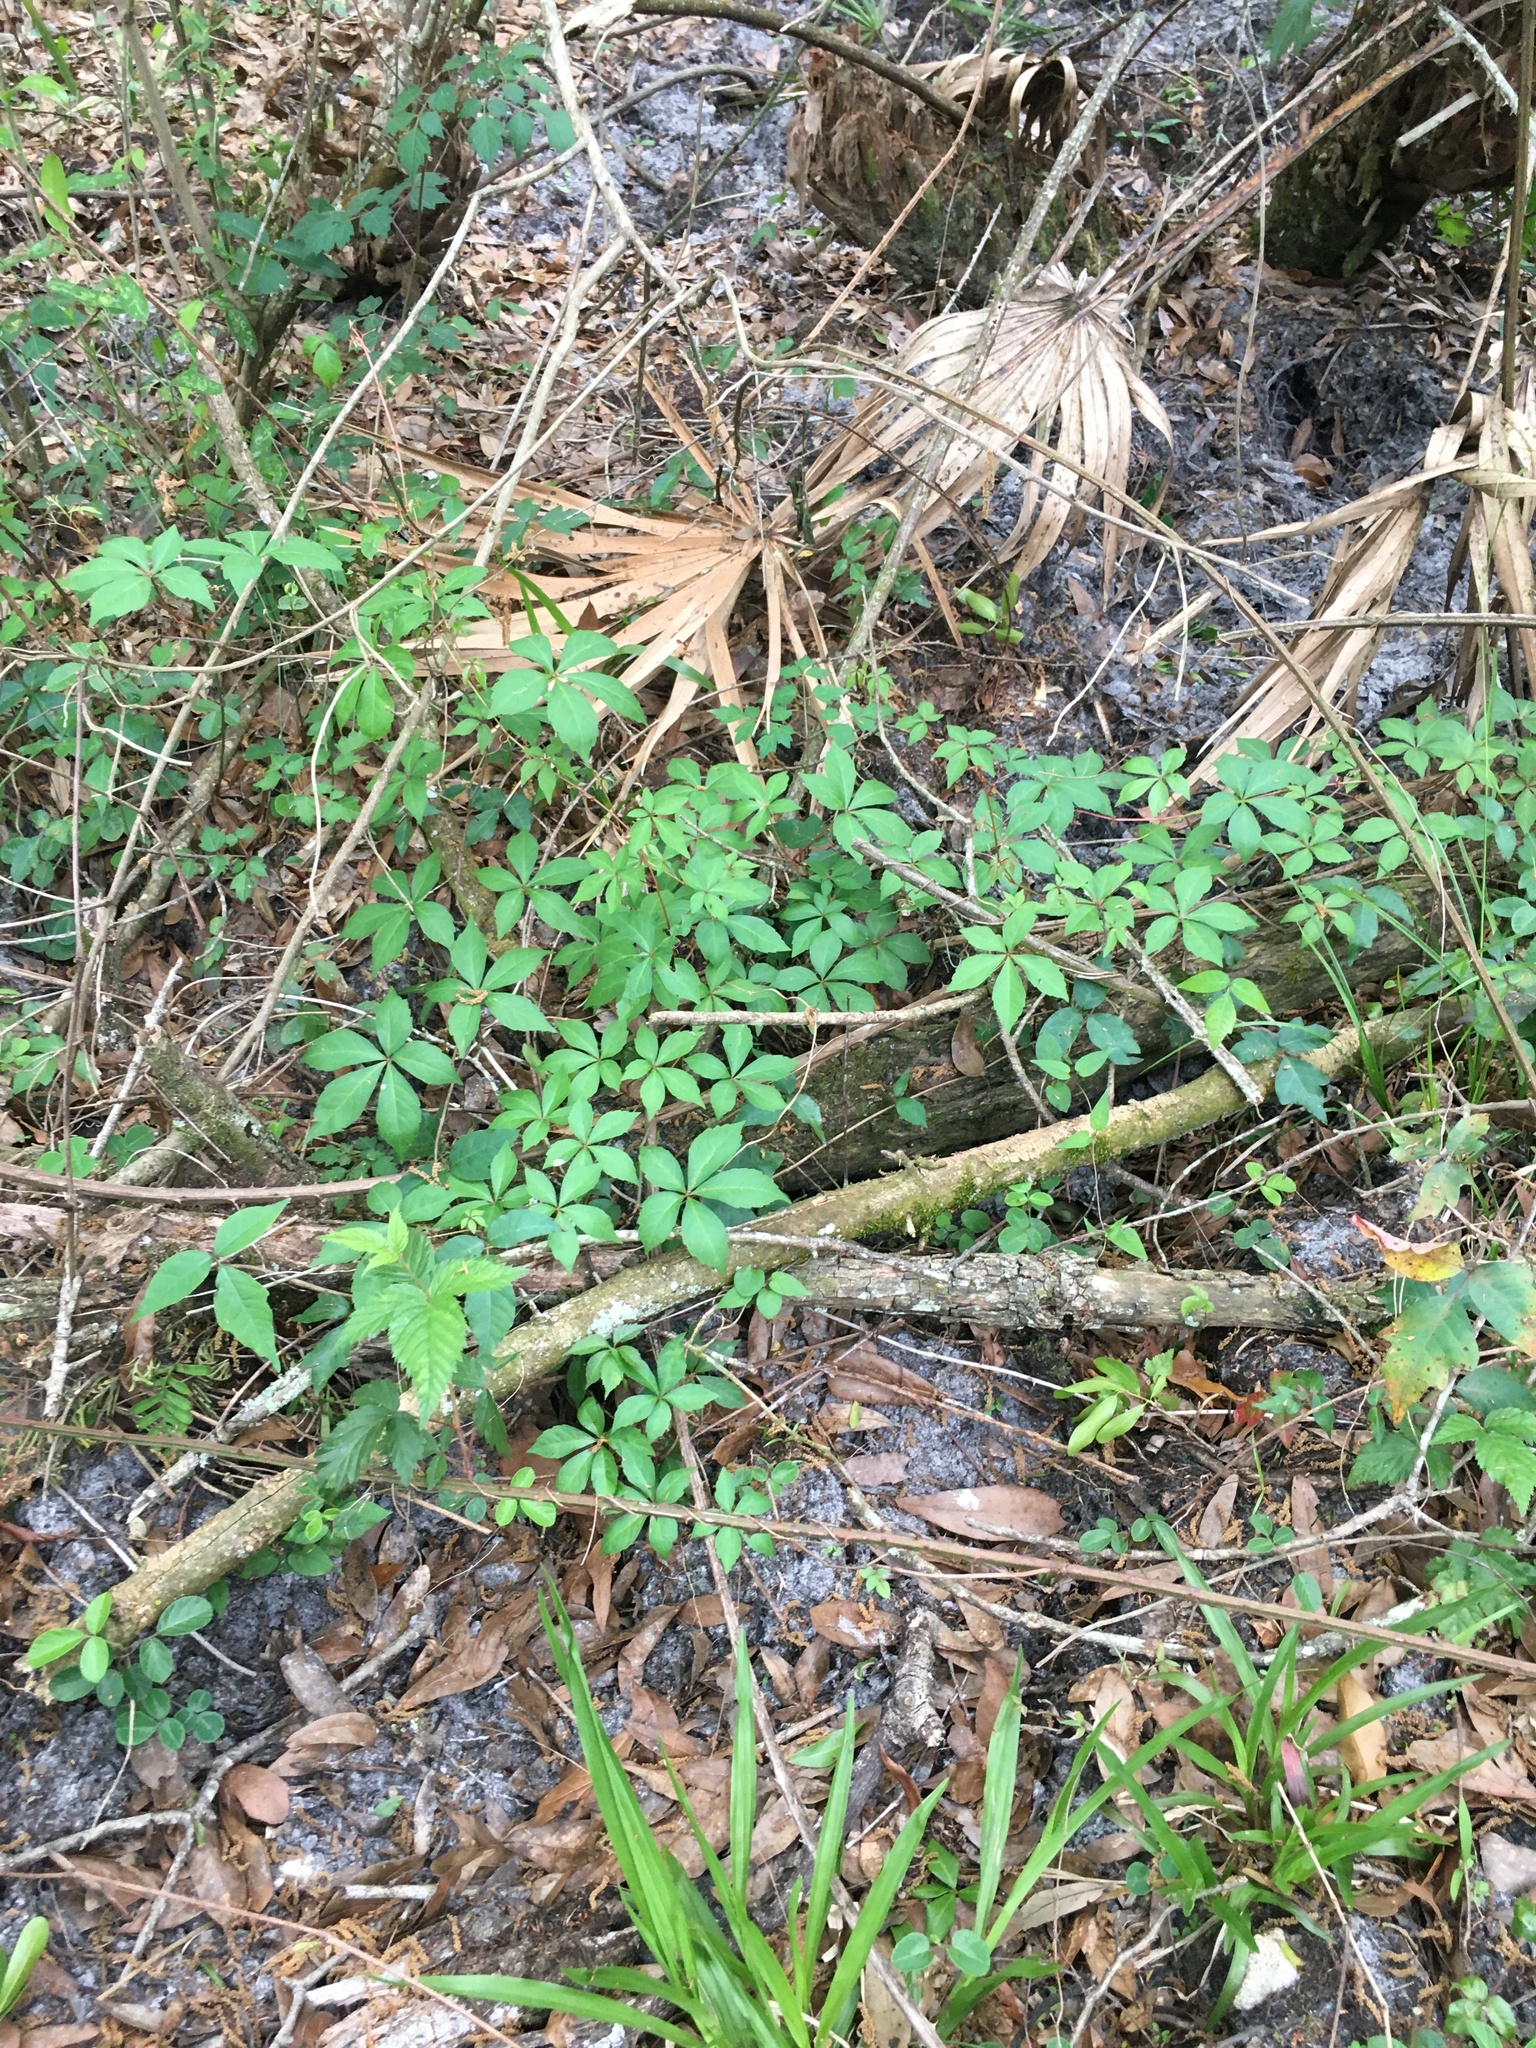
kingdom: Plantae
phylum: Tracheophyta
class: Magnoliopsida
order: Vitales
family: Vitaceae
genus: Parthenocissus
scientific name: Parthenocissus quinquefolia
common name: Virginia-creeper
